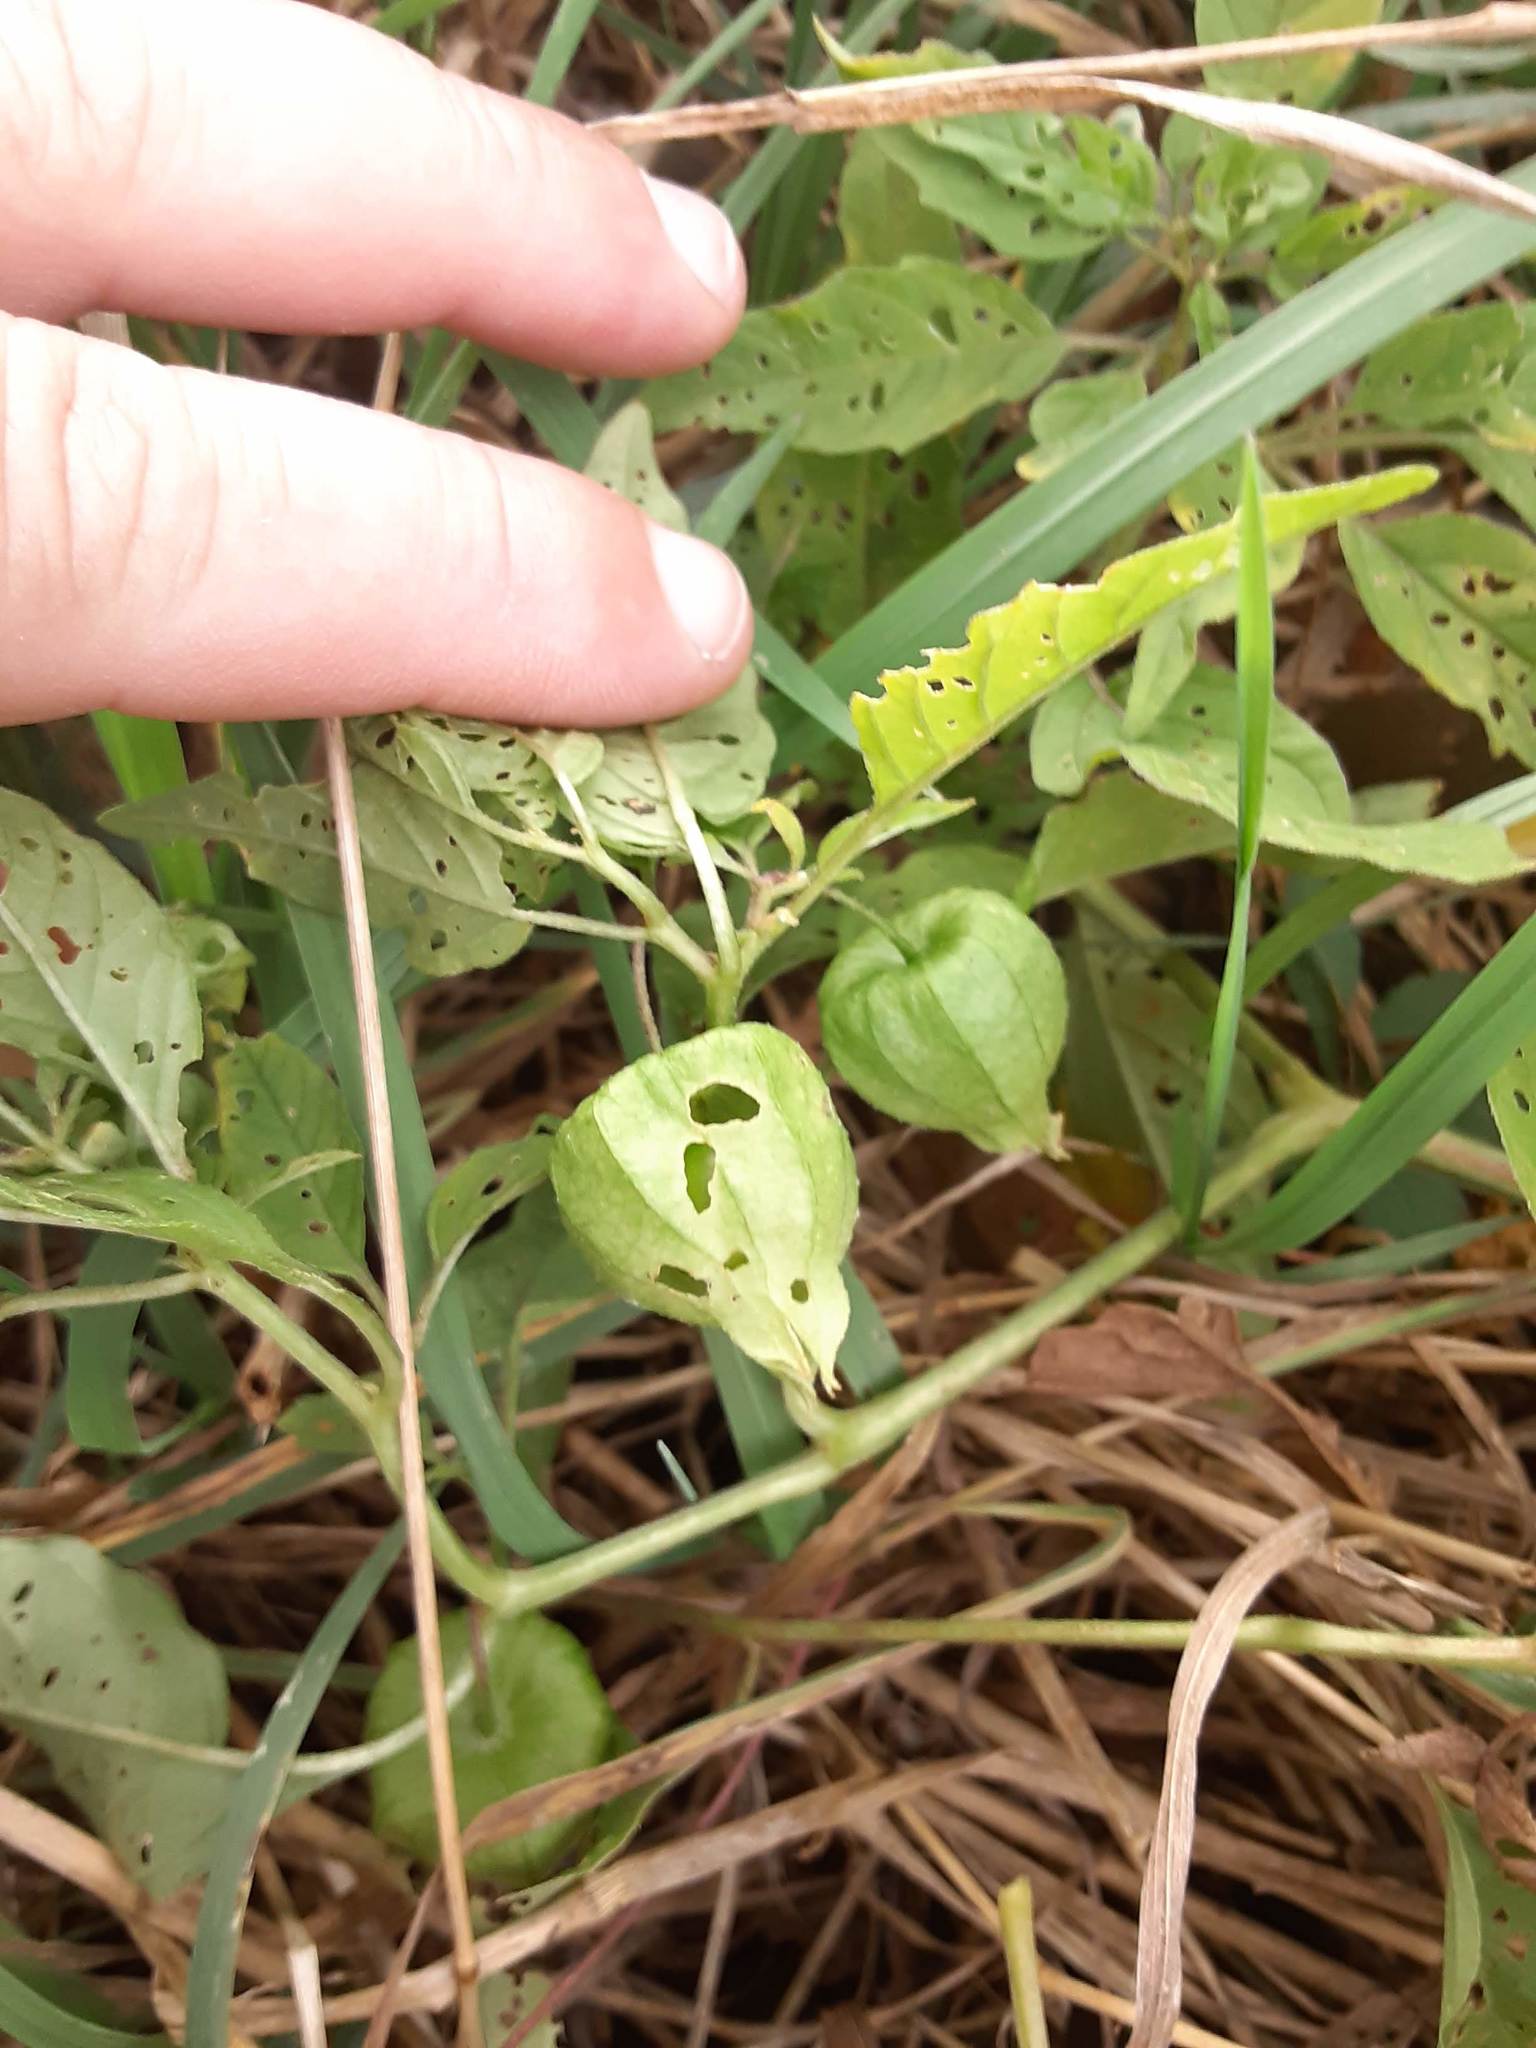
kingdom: Plantae
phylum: Tracheophyta
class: Magnoliopsida
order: Solanales
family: Solanaceae
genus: Physalis
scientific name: Physalis longifolia
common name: Common ground-cherry
